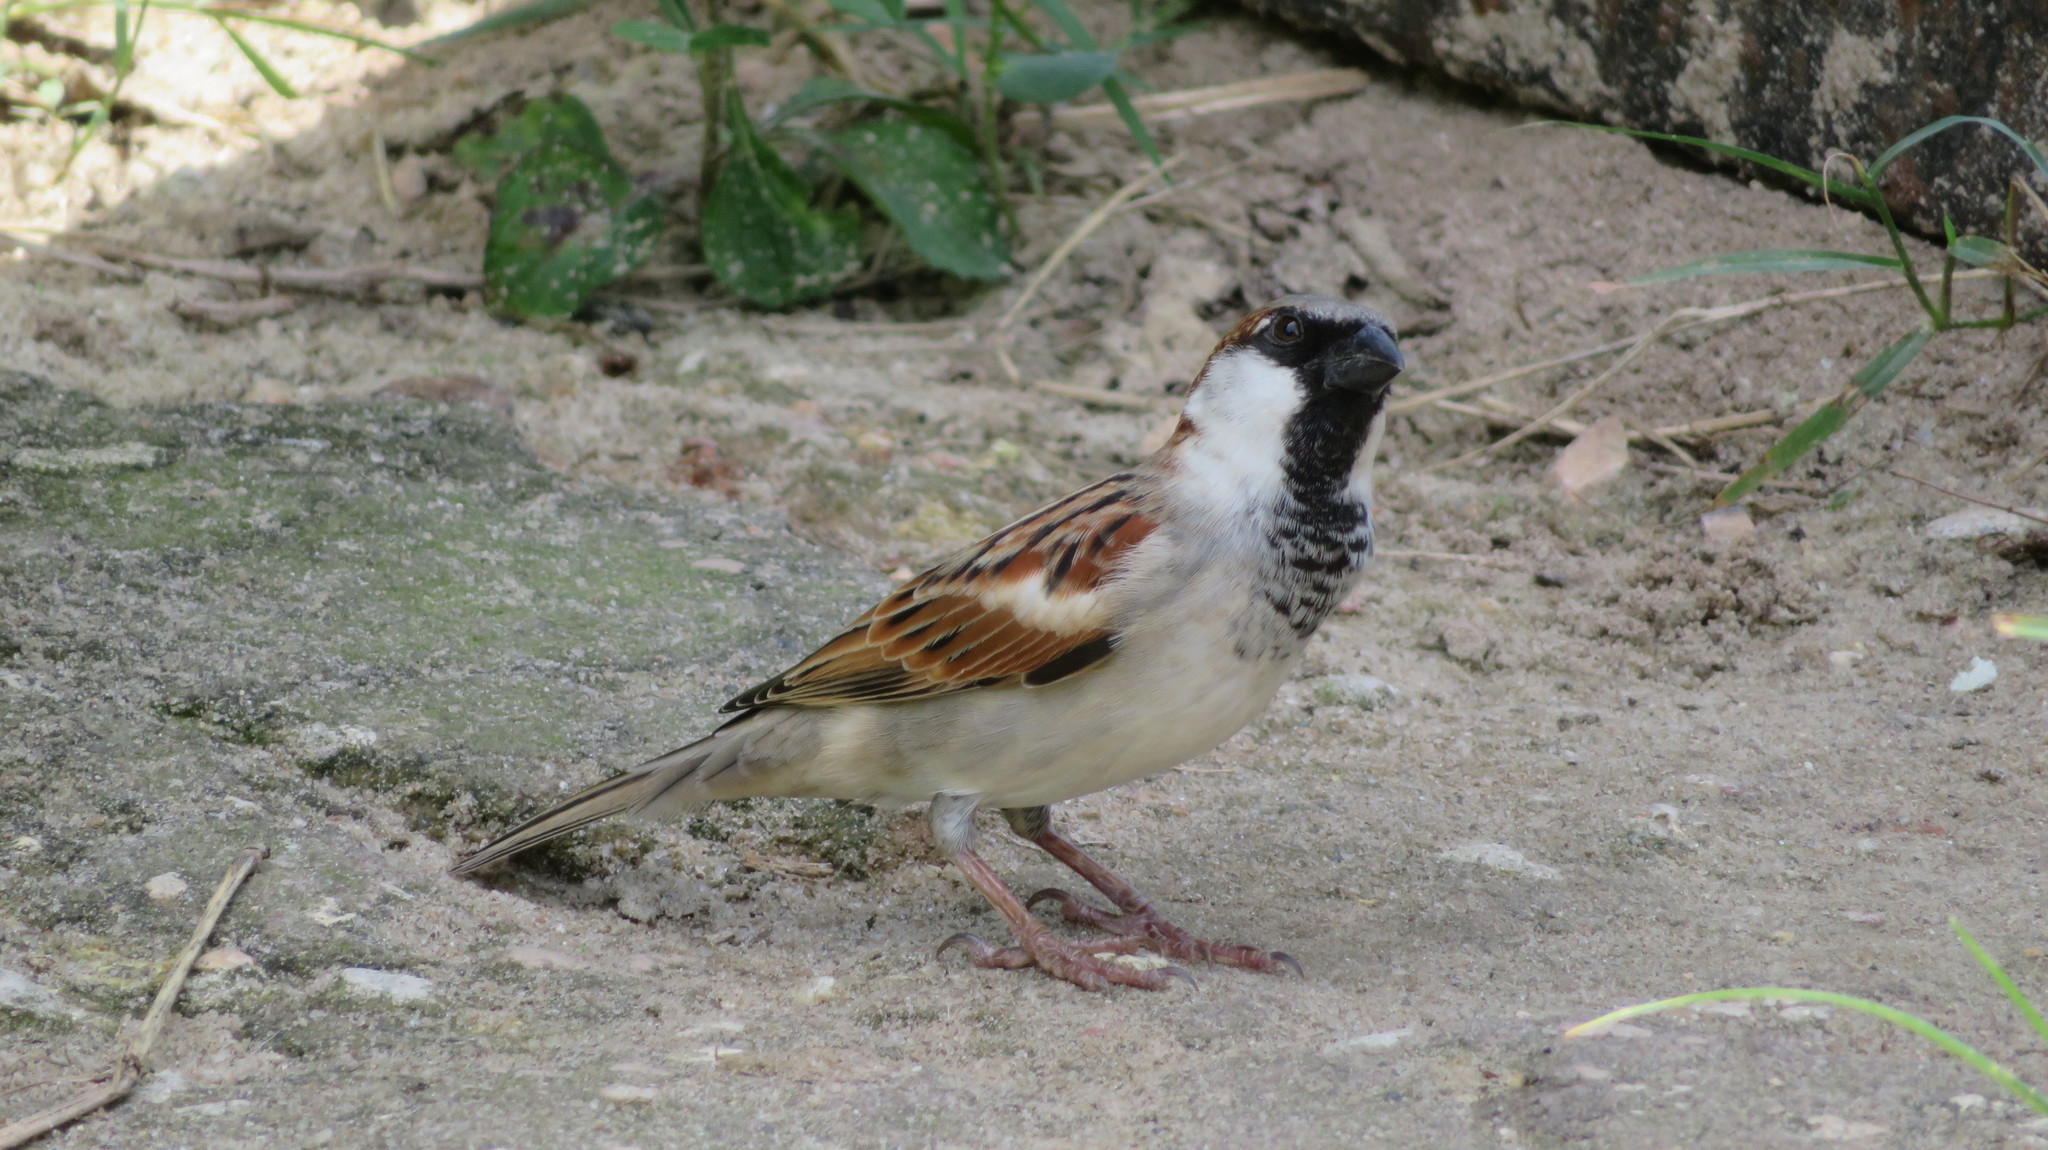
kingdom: Animalia
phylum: Chordata
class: Aves
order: Passeriformes
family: Passeridae
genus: Passer
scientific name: Passer domesticus
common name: House sparrow
